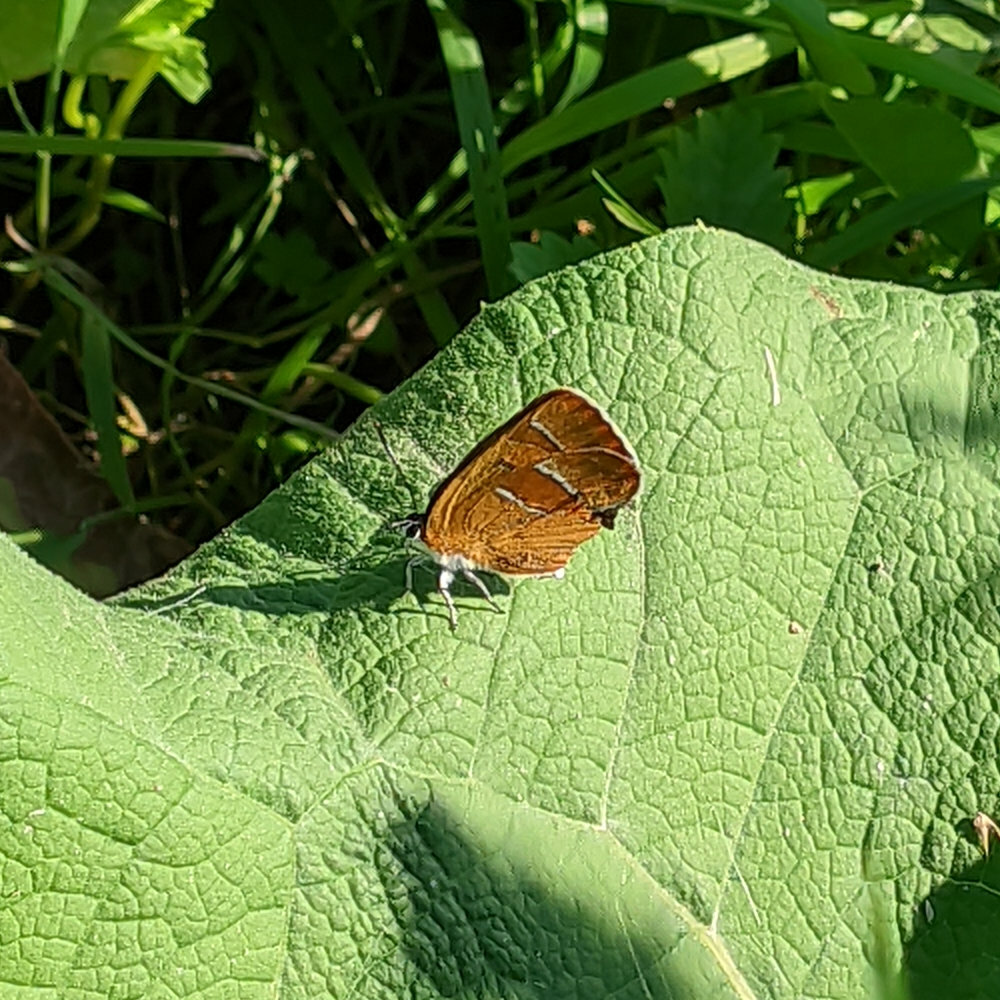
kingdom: Animalia
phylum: Arthropoda
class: Insecta
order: Lepidoptera
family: Lycaenidae
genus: Thecla
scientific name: Thecla betulae
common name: Brown hairstreak
